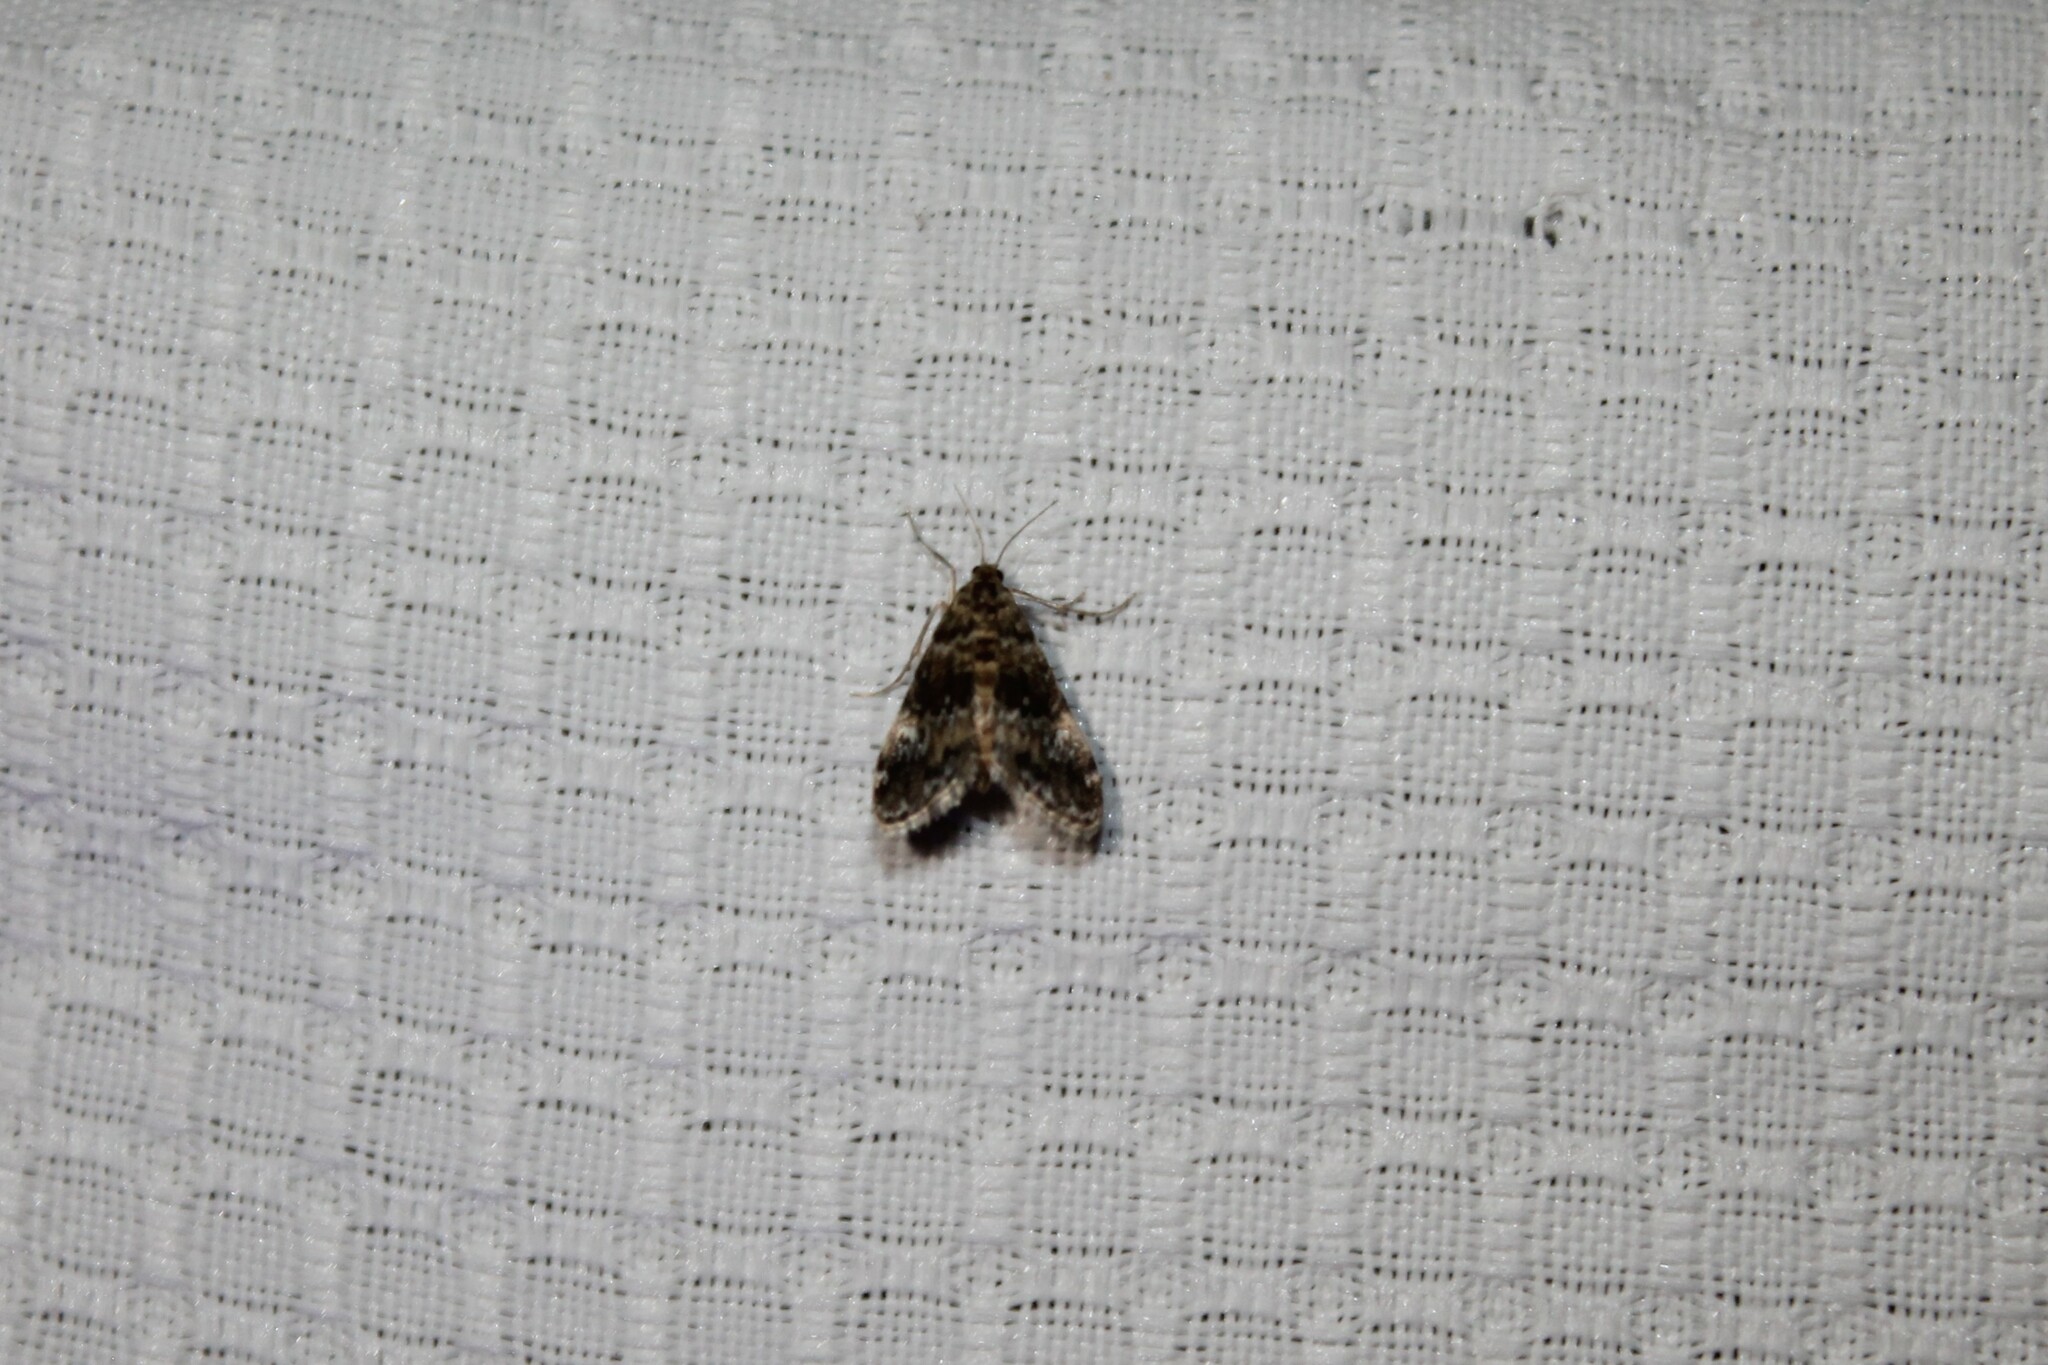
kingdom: Animalia
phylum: Arthropoda
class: Insecta
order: Lepidoptera
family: Crambidae
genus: Elophila
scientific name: Elophila obliteralis
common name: Waterlily leafcutter moth
